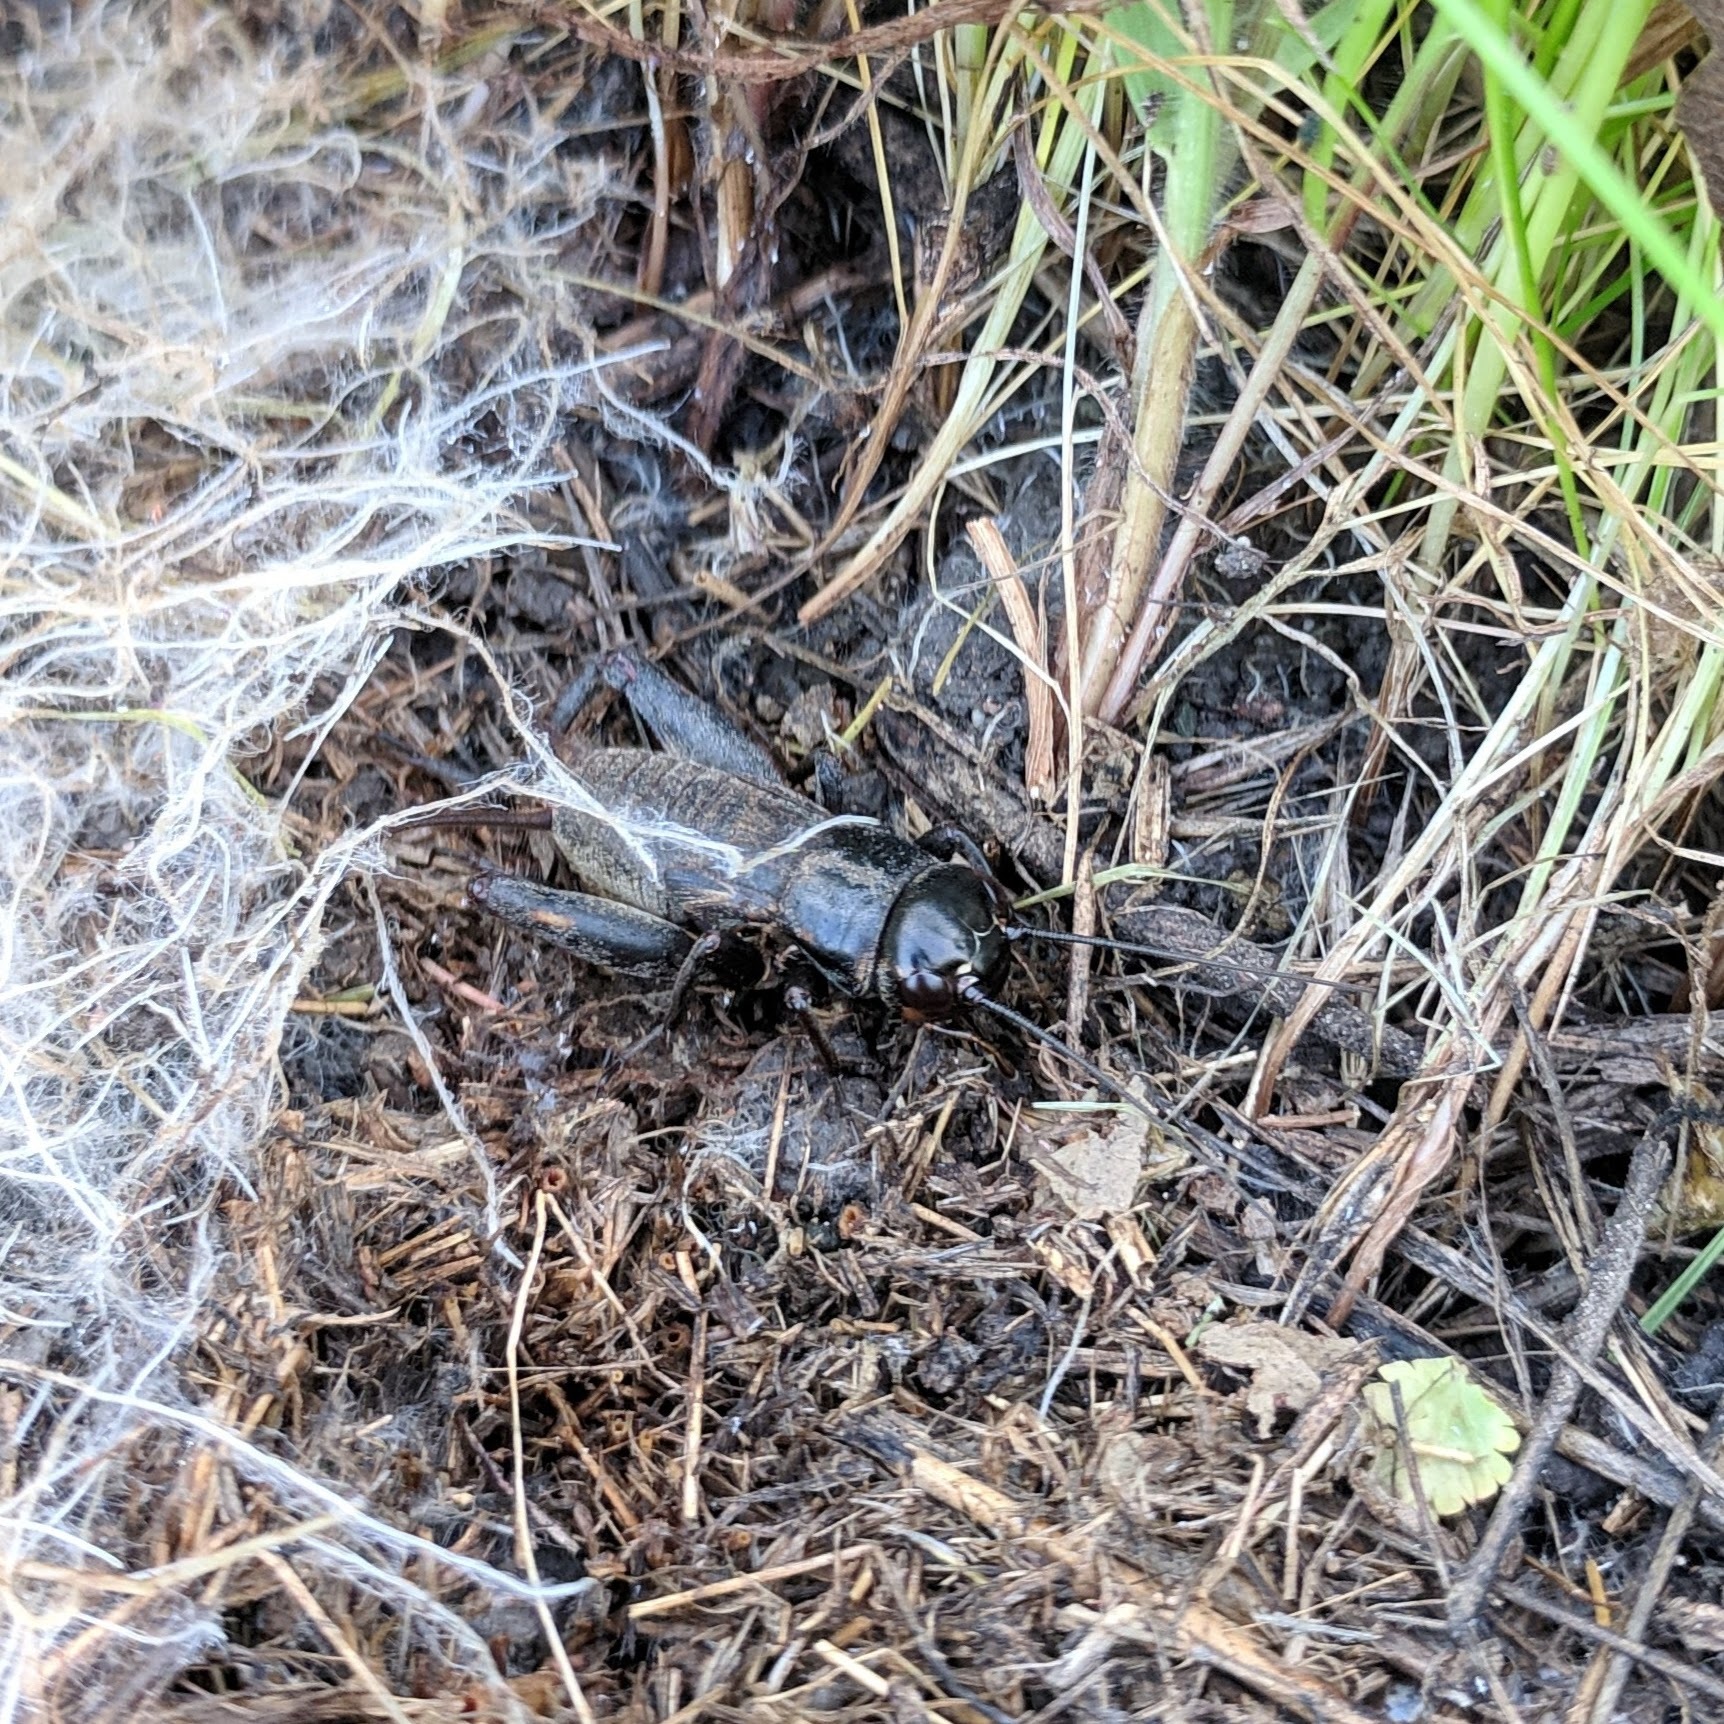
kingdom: Animalia
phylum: Arthropoda
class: Insecta
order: Orthoptera
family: Gryllidae
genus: Gryllus
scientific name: Gryllus
